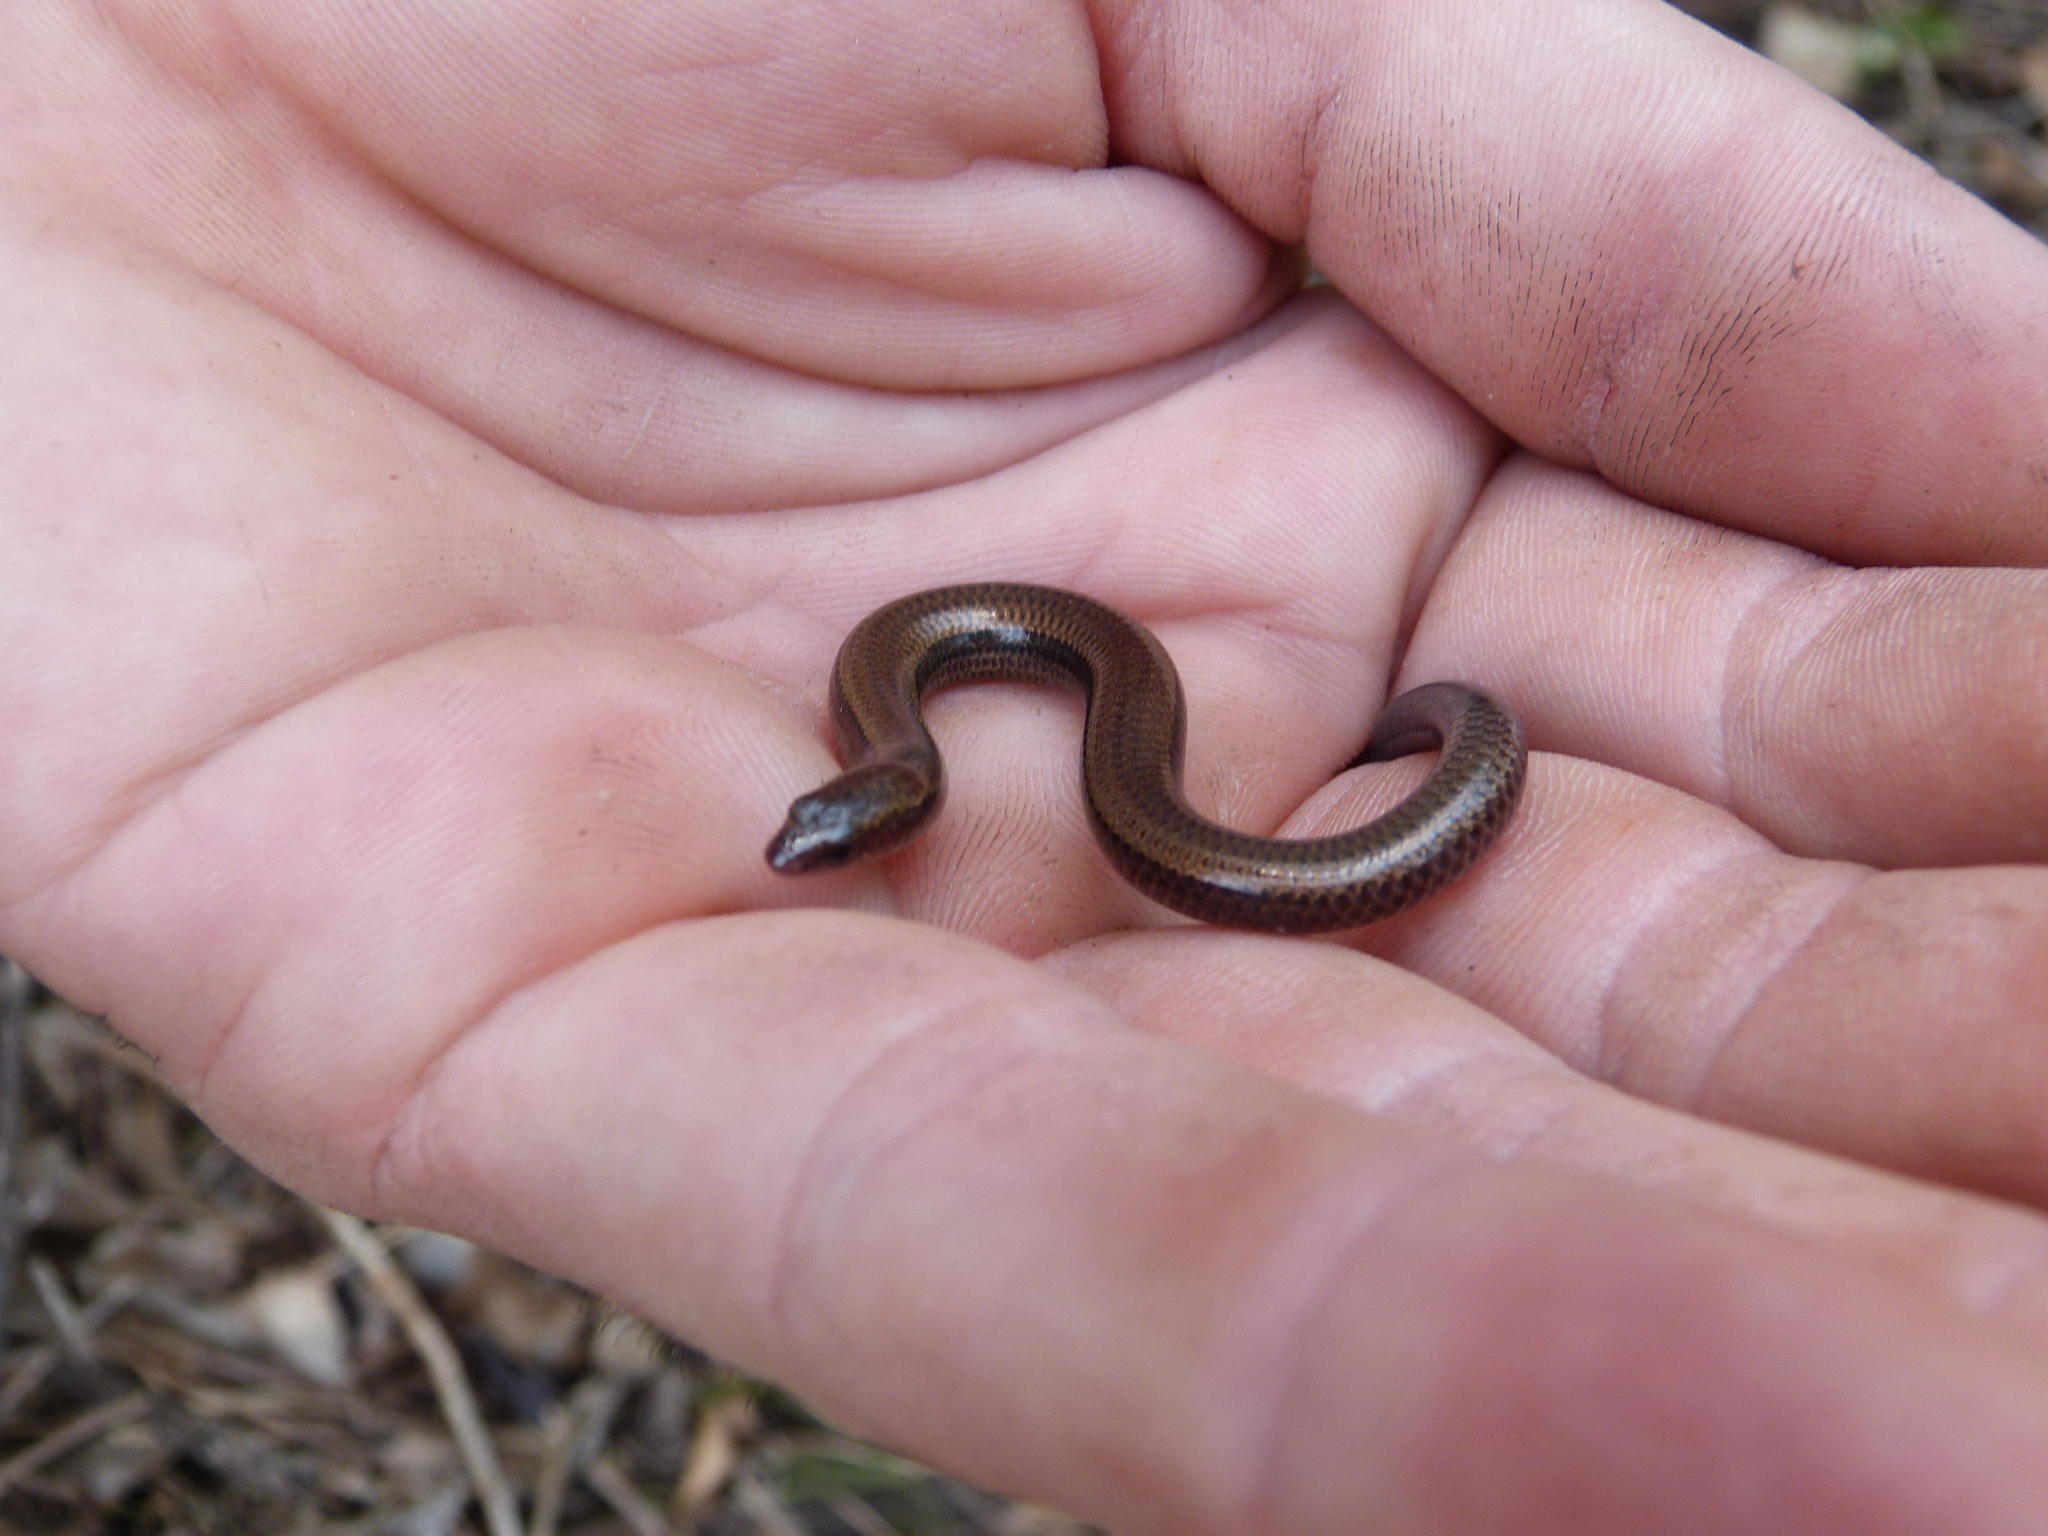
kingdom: Animalia
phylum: Chordata
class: Squamata
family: Scincidae
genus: Scelotes
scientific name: Scelotes fitzsimonsi
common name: Fitzsimons' dwarf burrowing skink
